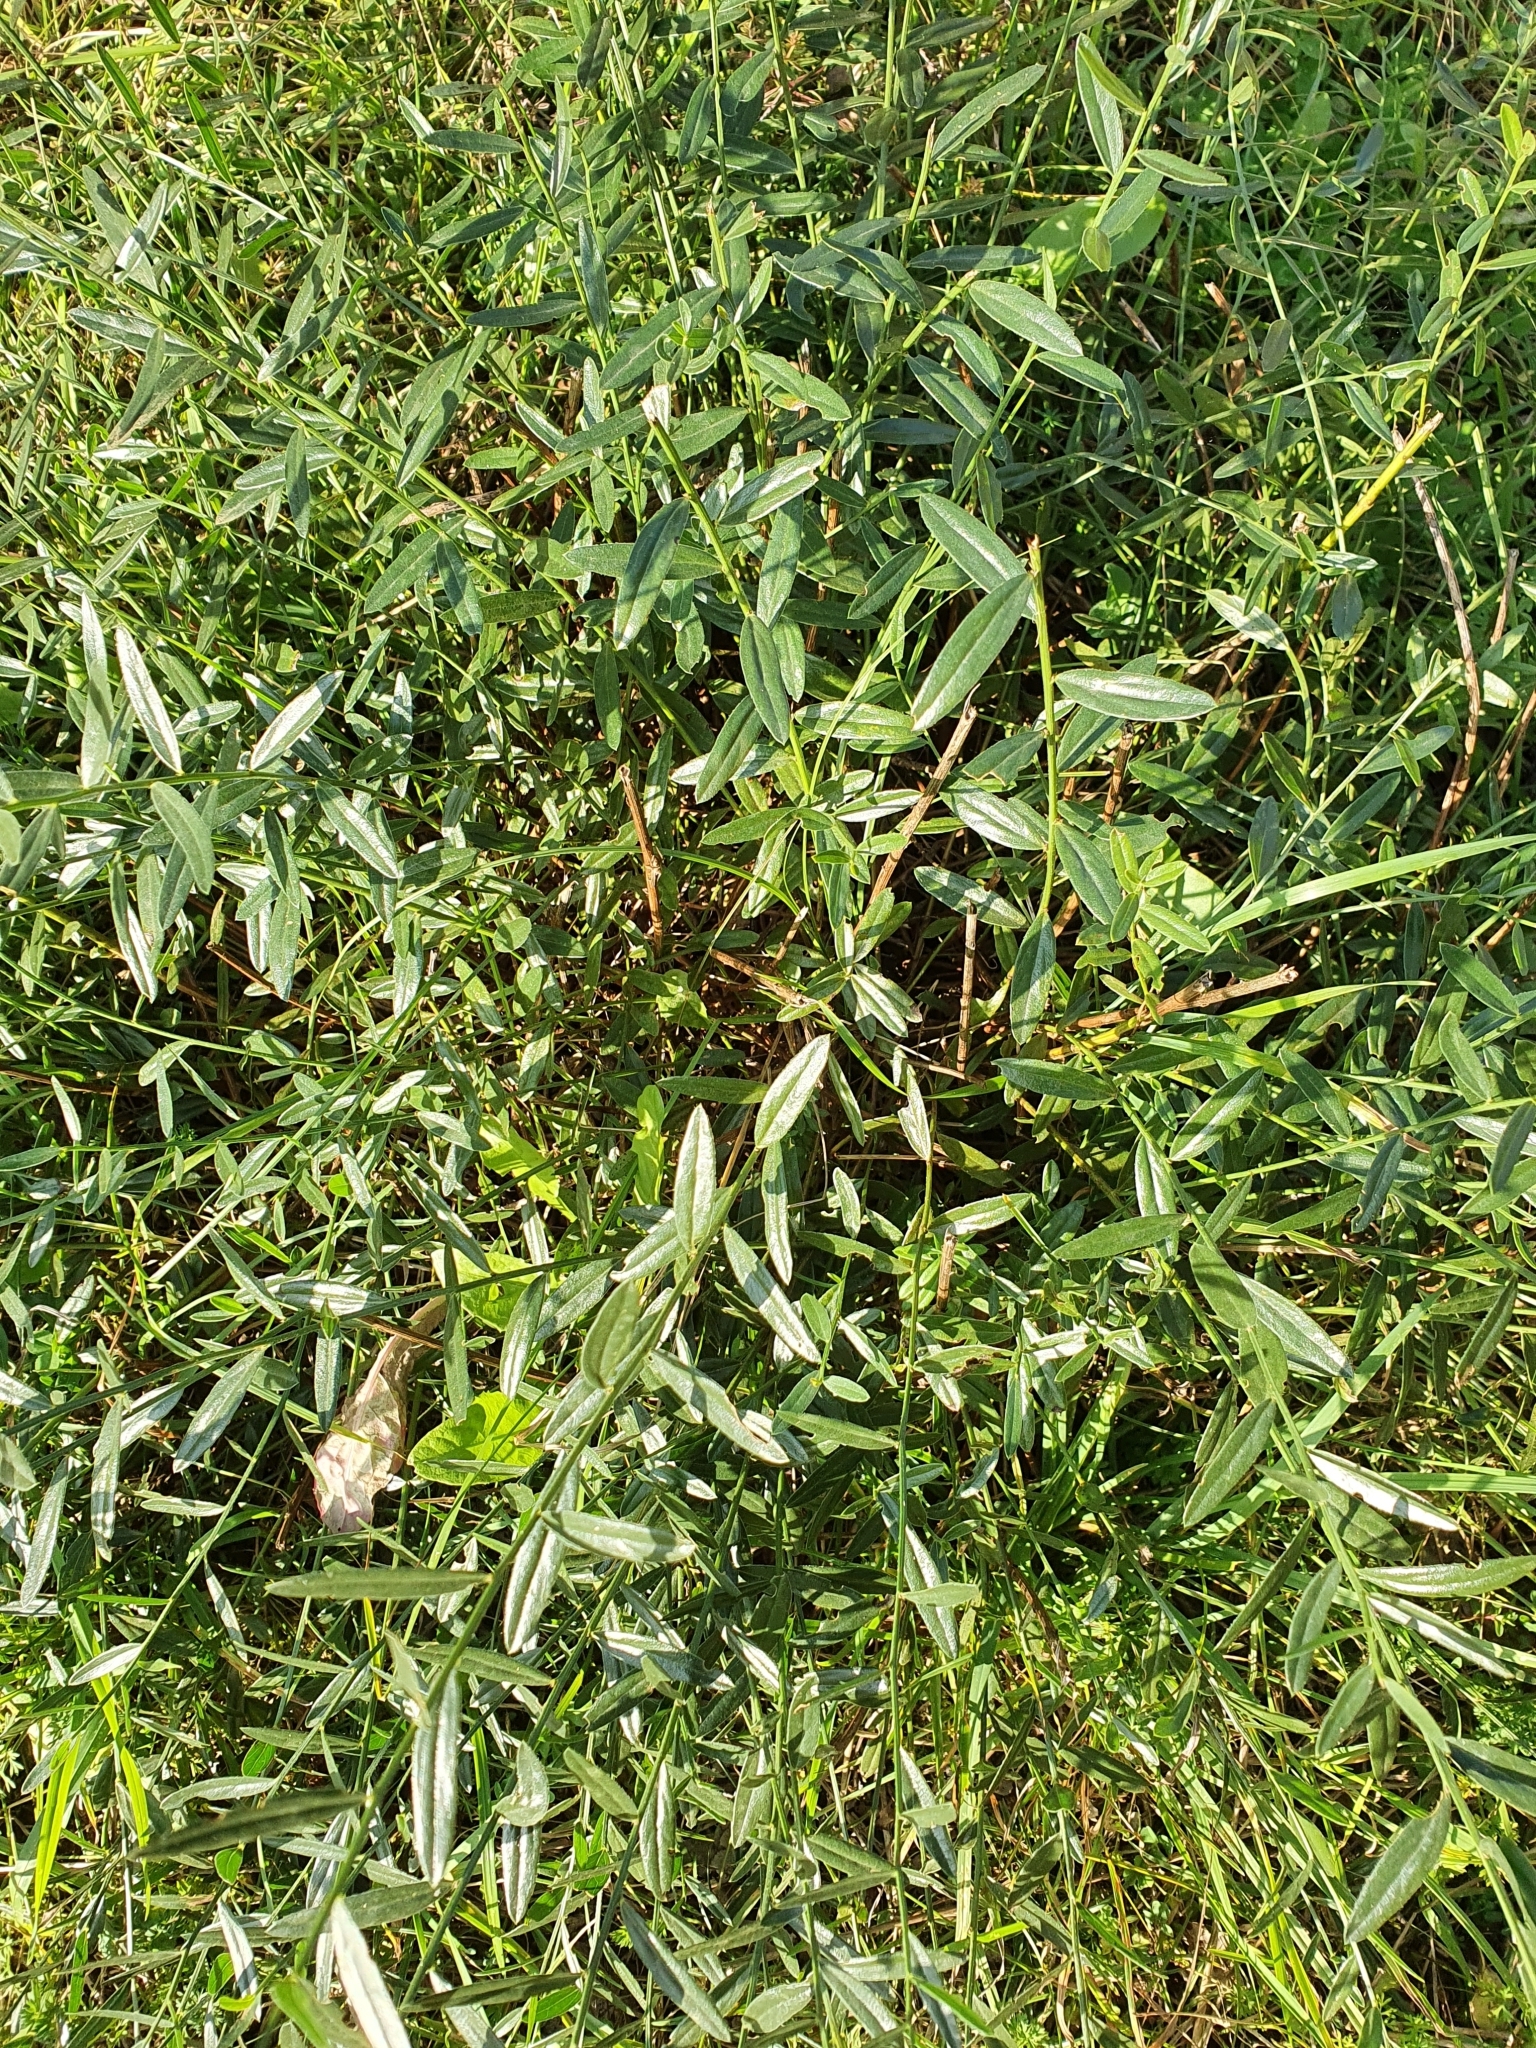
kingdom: Plantae
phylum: Tracheophyta
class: Magnoliopsida
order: Fabales
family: Fabaceae
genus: Genista
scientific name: Genista tinctoria
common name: Dyer's greenweed
